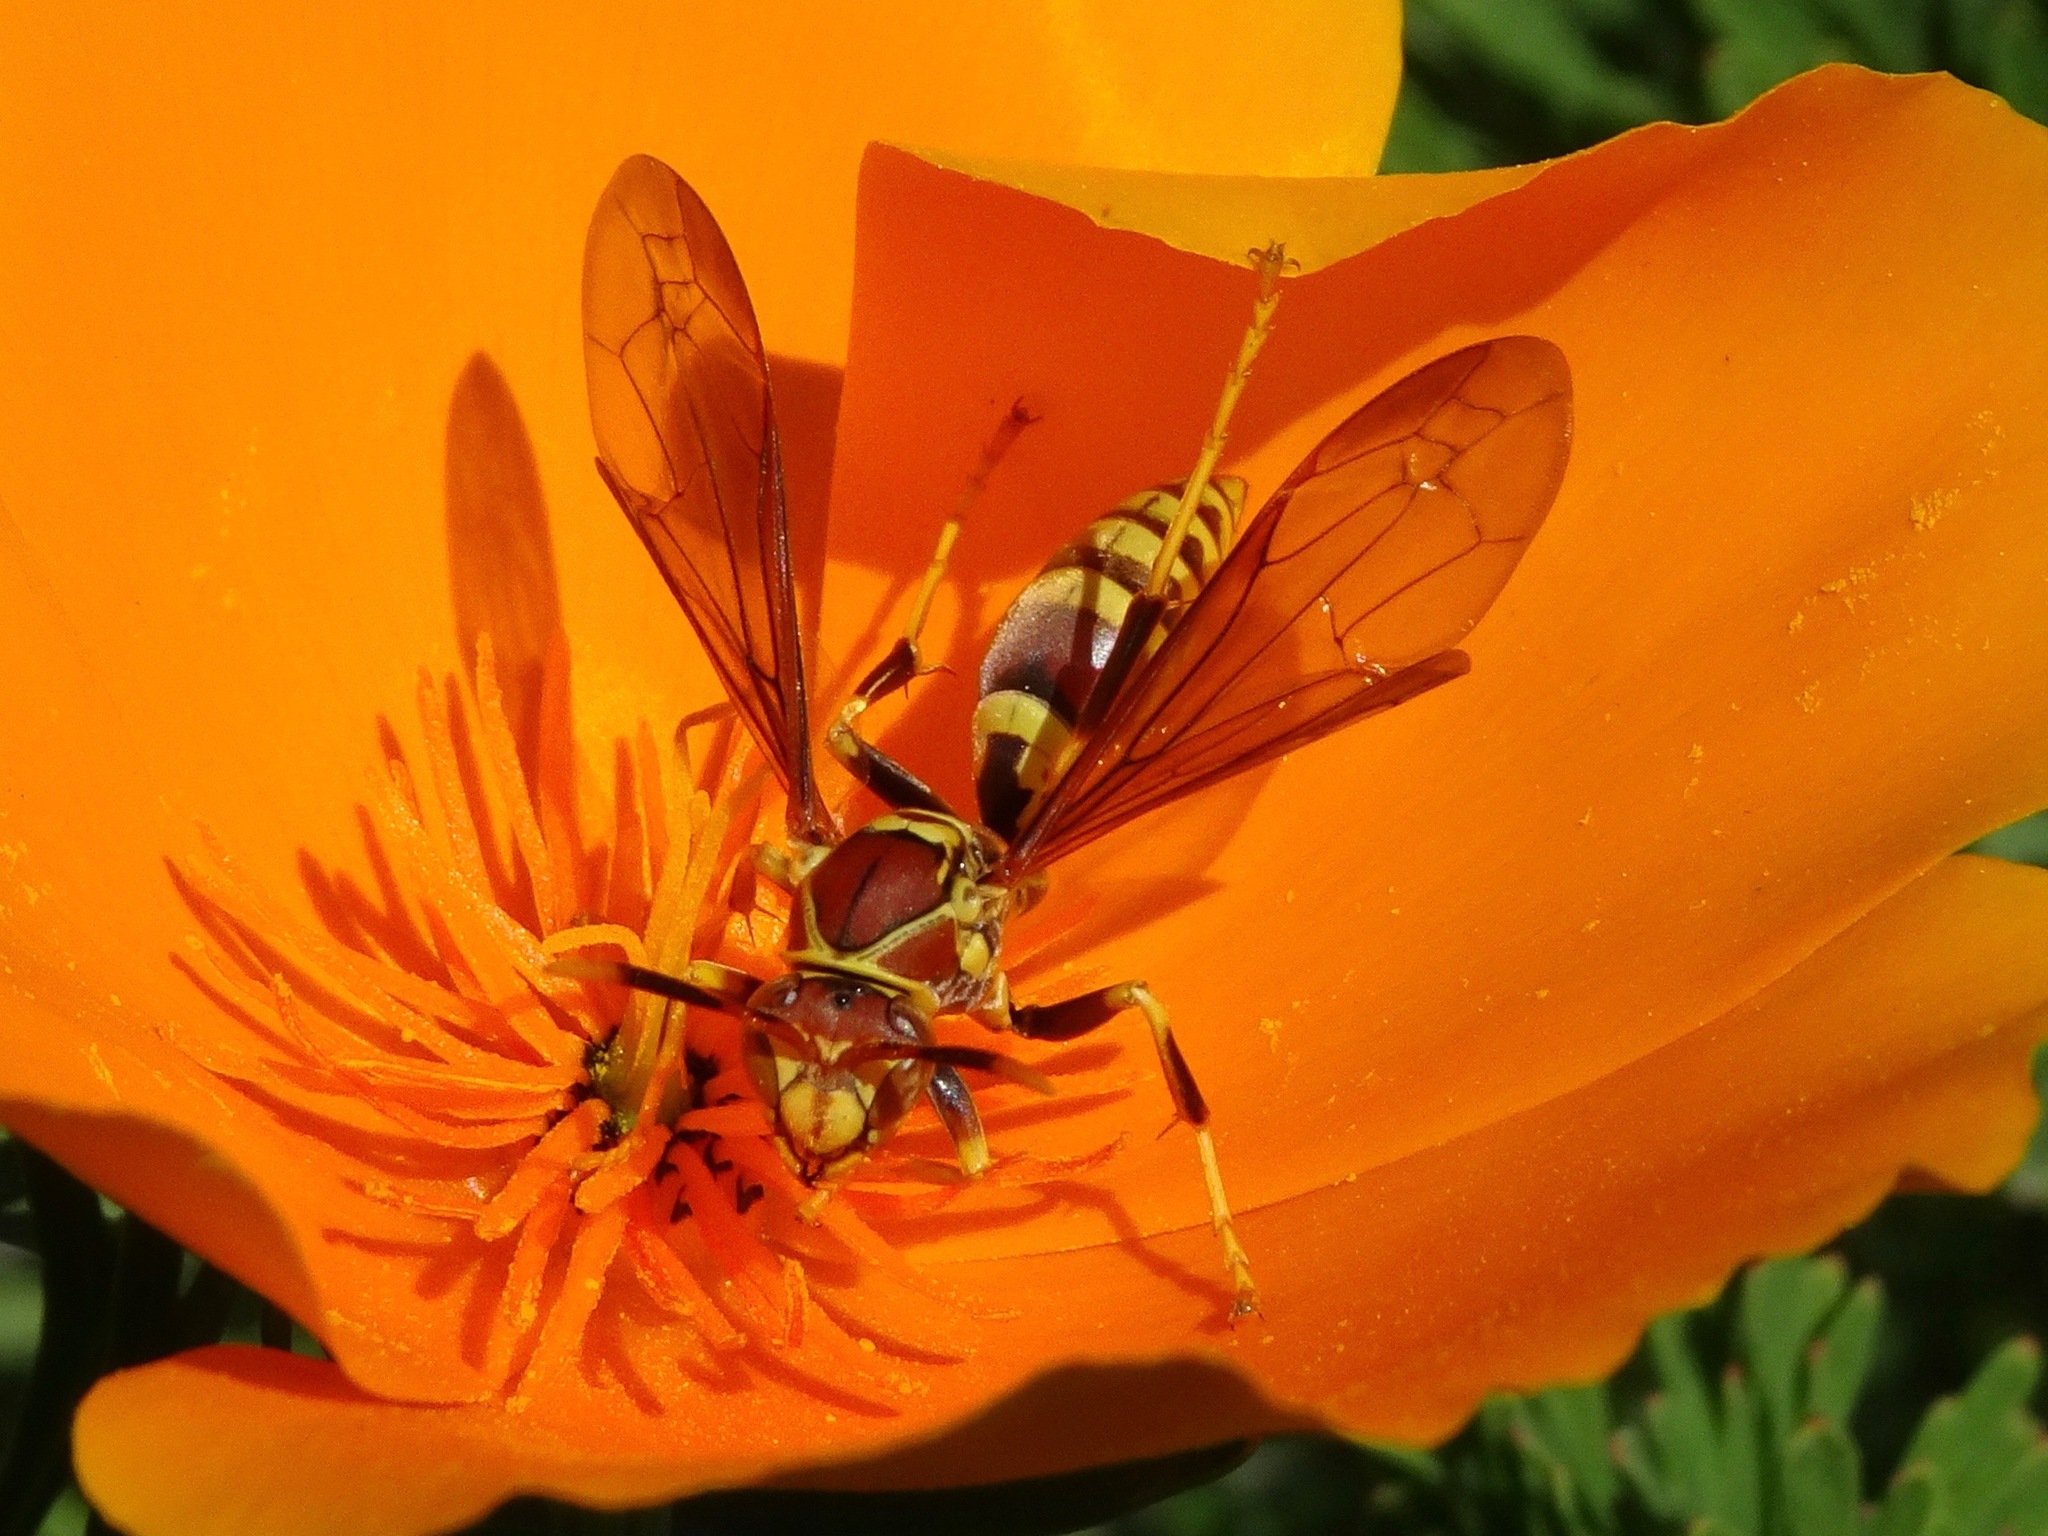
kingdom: Animalia
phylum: Arthropoda
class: Insecta
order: Hymenoptera
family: Eumenidae
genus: Polistes
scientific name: Polistes exclamans
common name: Paper wasp
